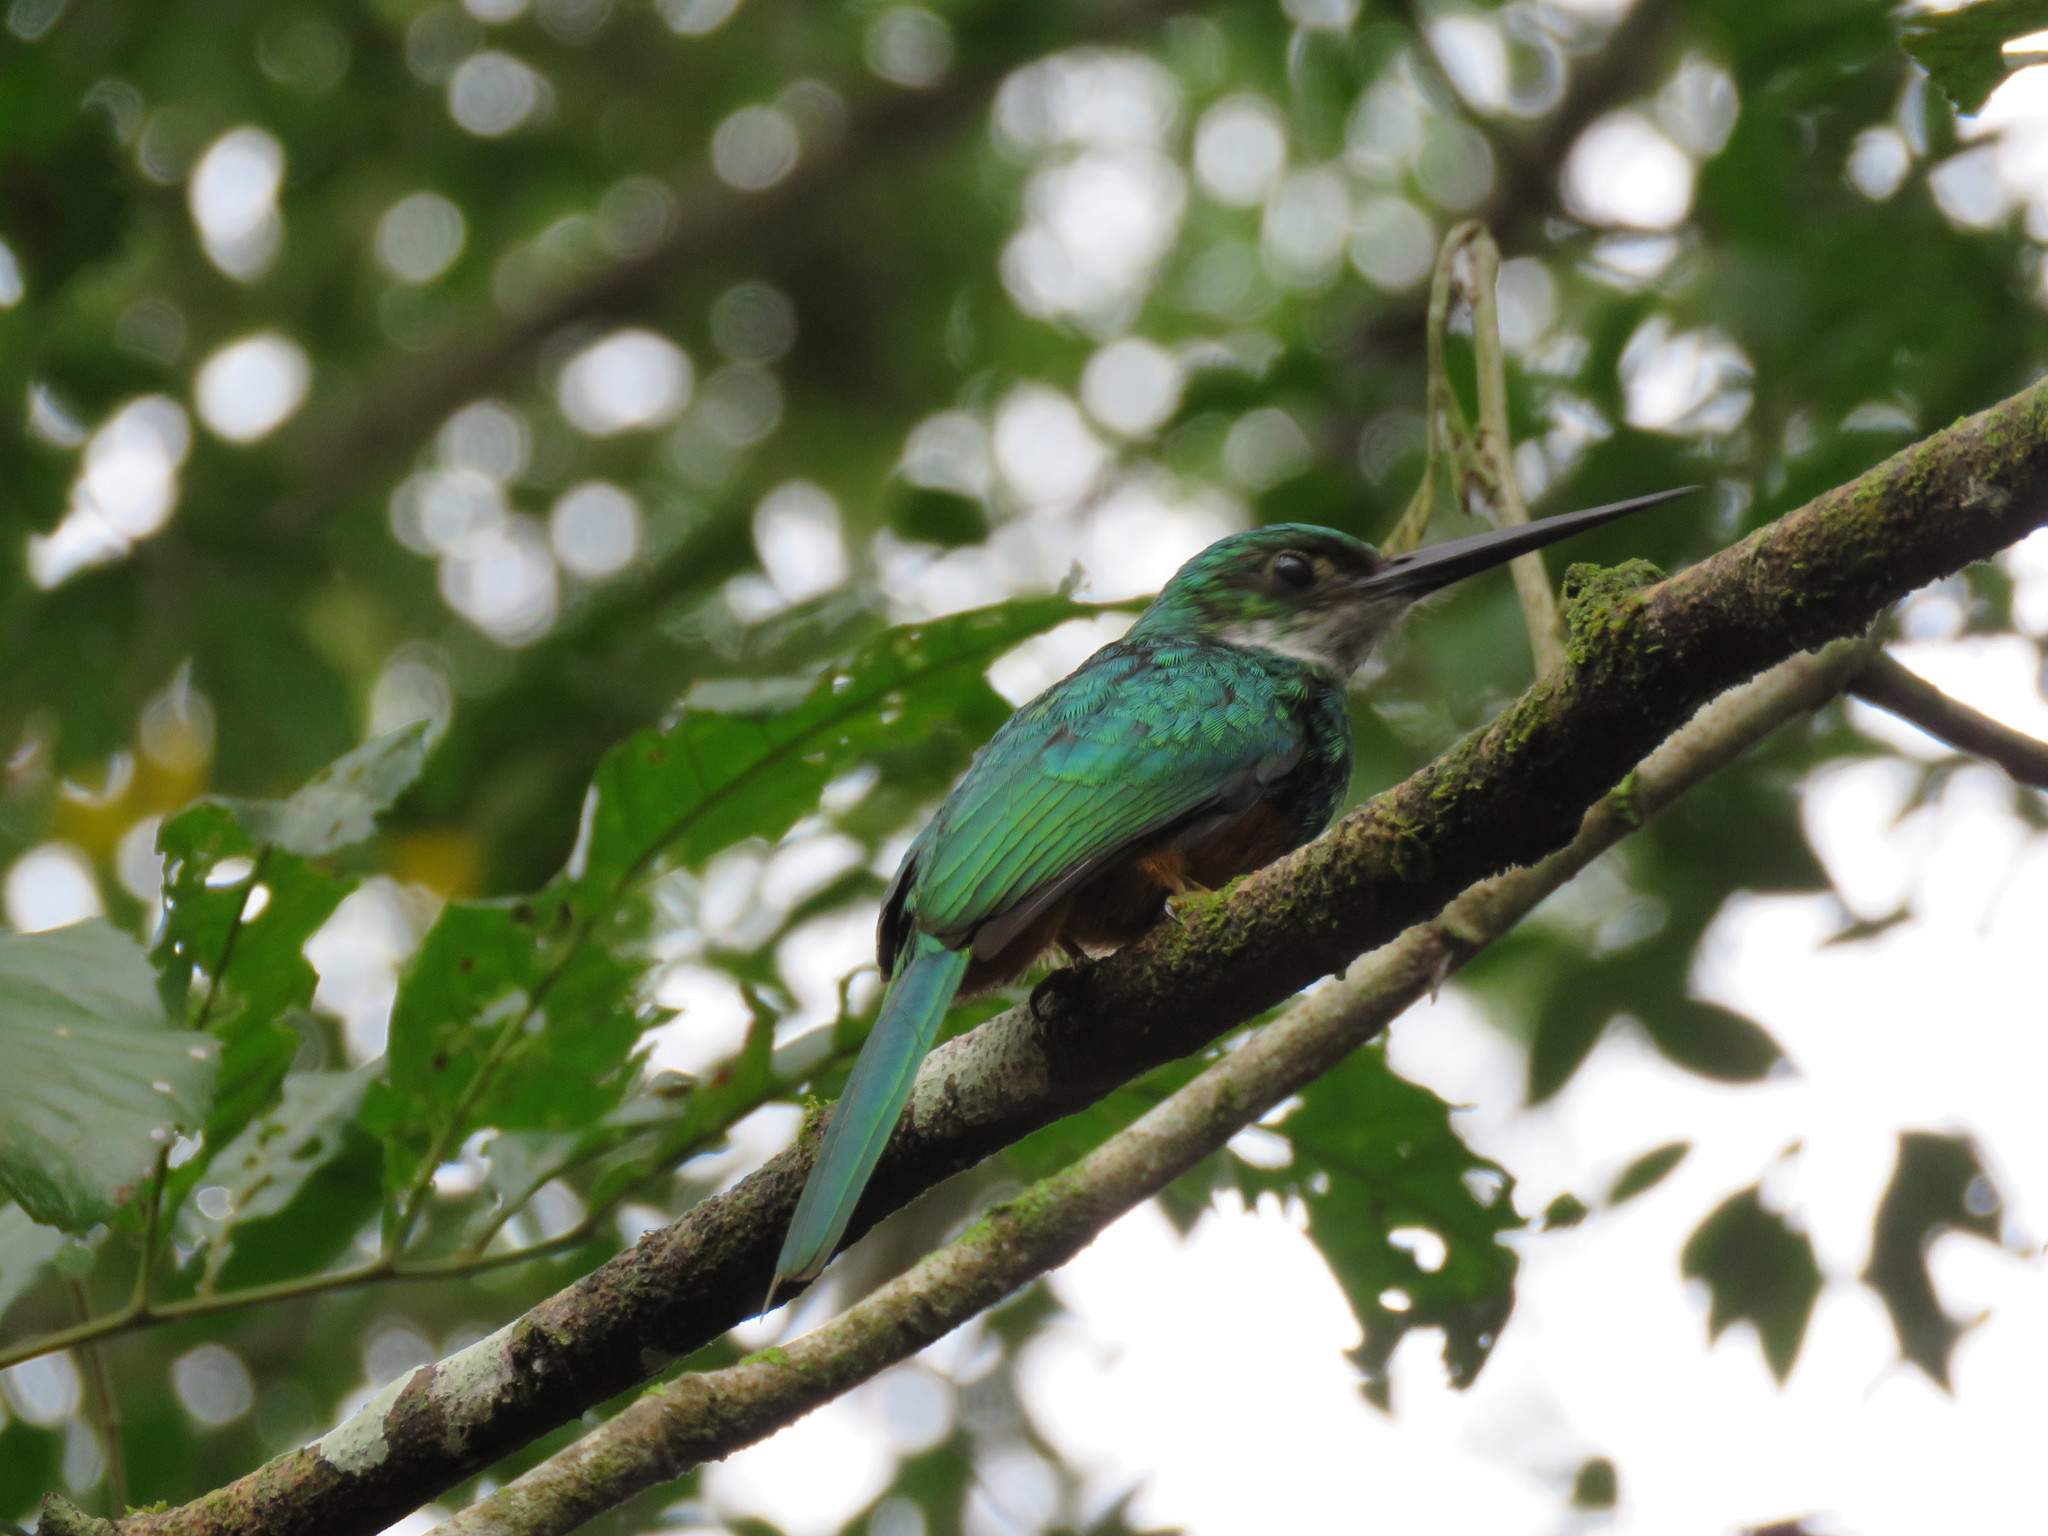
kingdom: Animalia
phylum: Chordata
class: Aves
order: Piciformes
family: Galbulidae
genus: Galbula
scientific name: Galbula ruficauda
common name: Rufous-tailed jacamar
